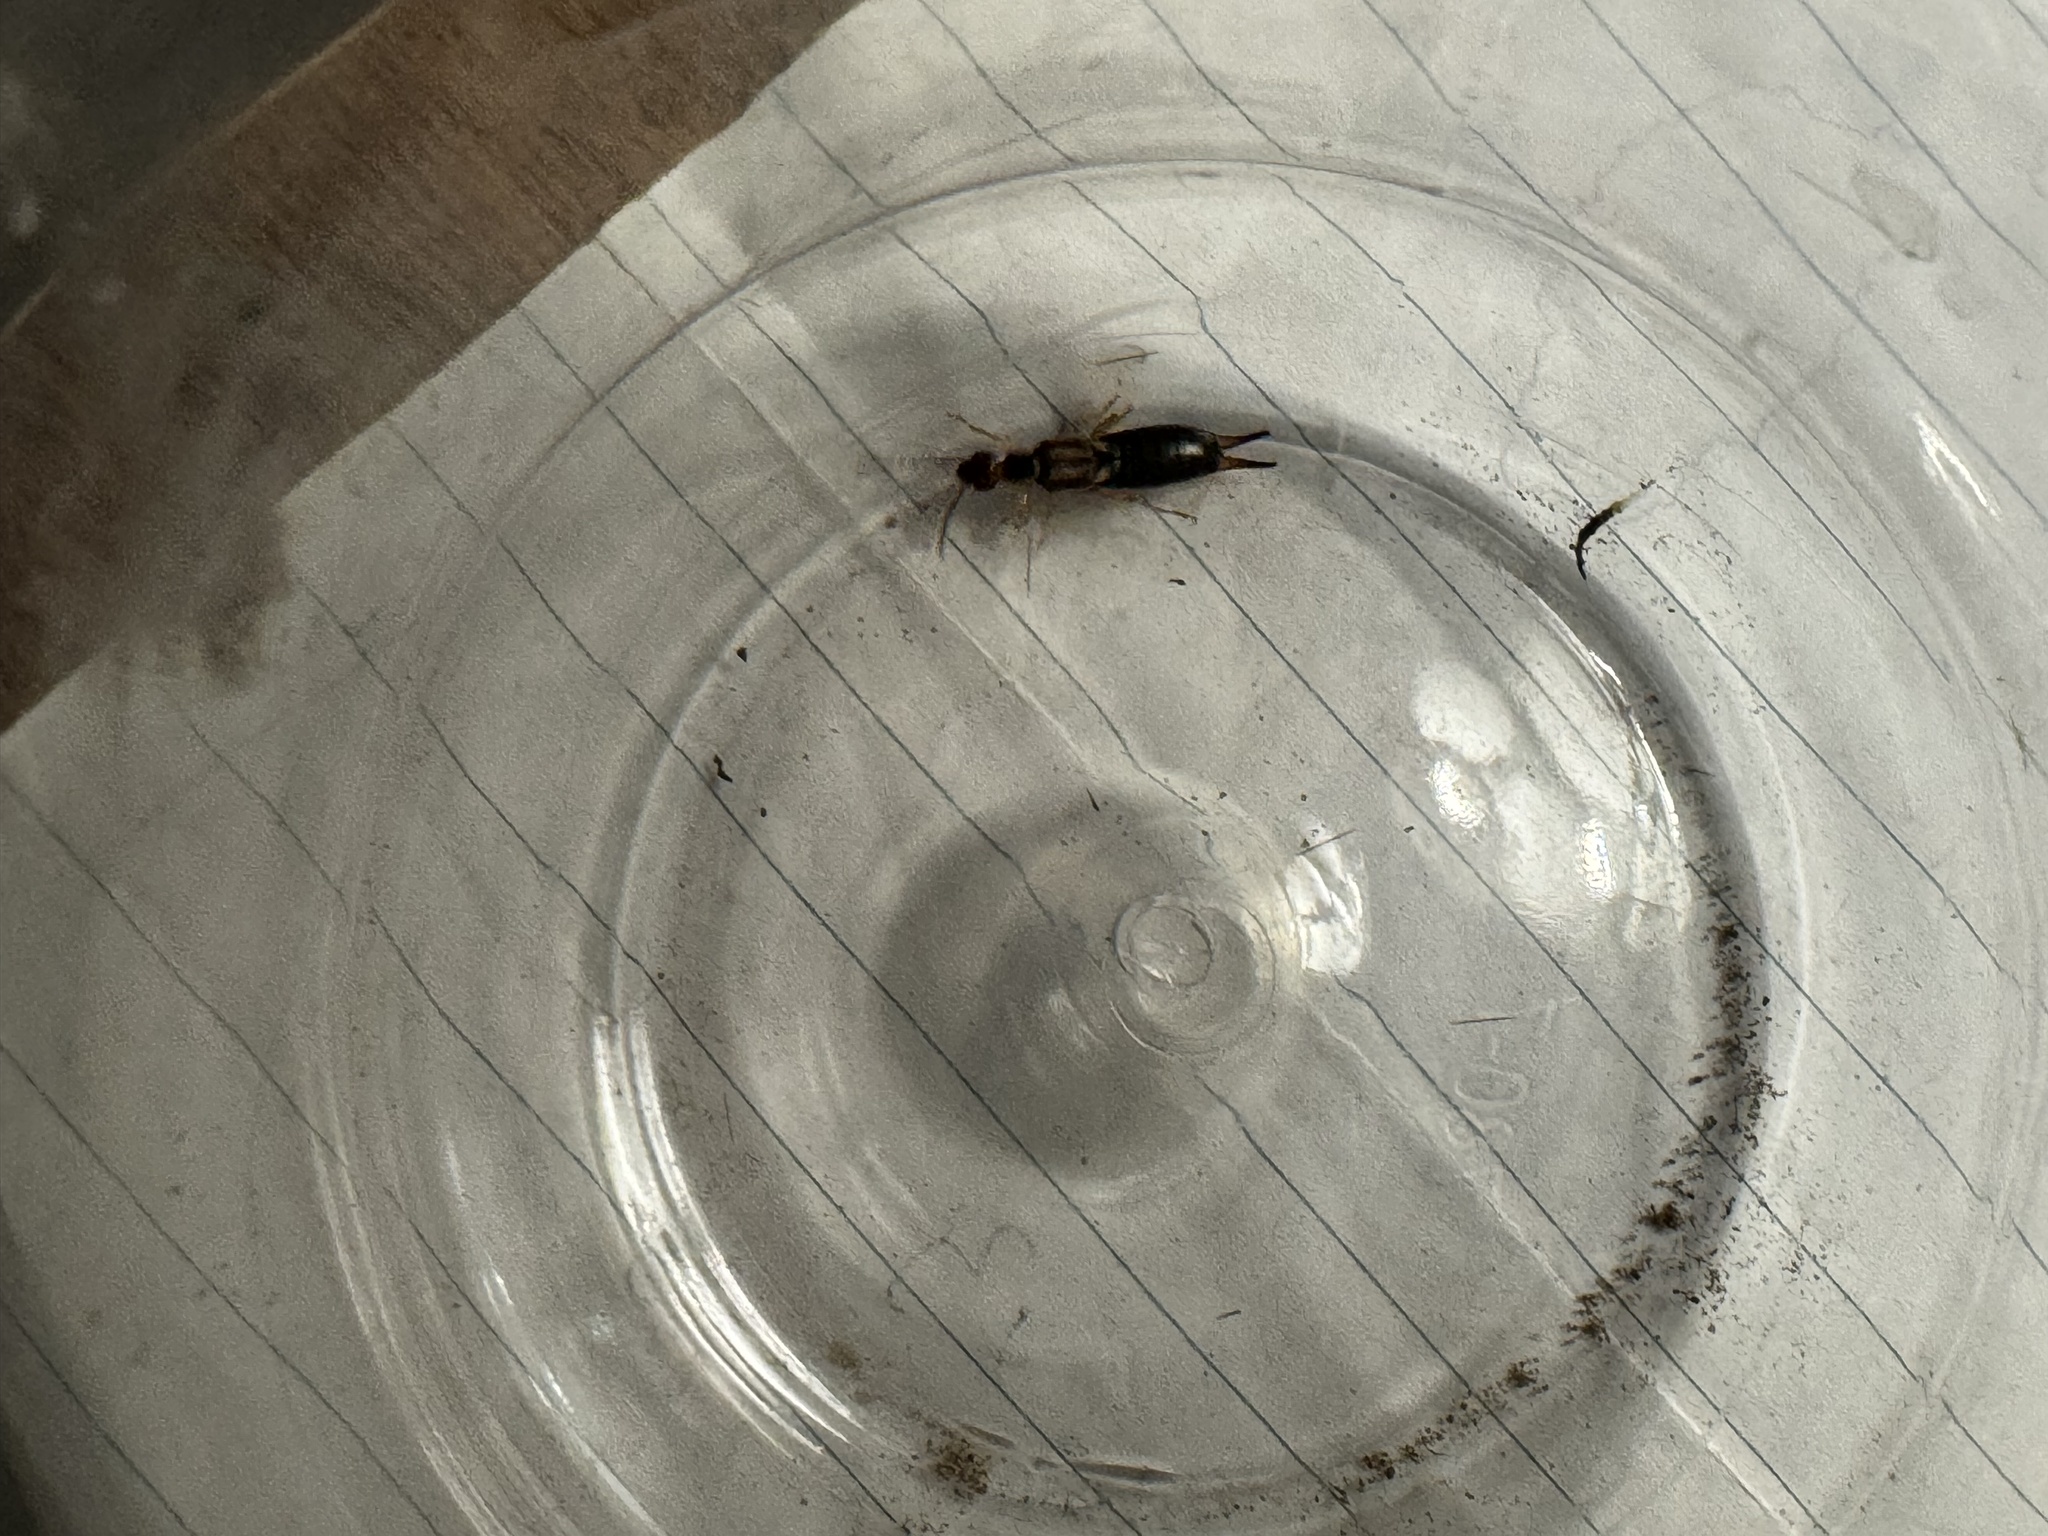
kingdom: Animalia
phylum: Arthropoda
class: Insecta
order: Dermaptera
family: Forficulidae
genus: Forficula
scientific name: Forficula dentata
